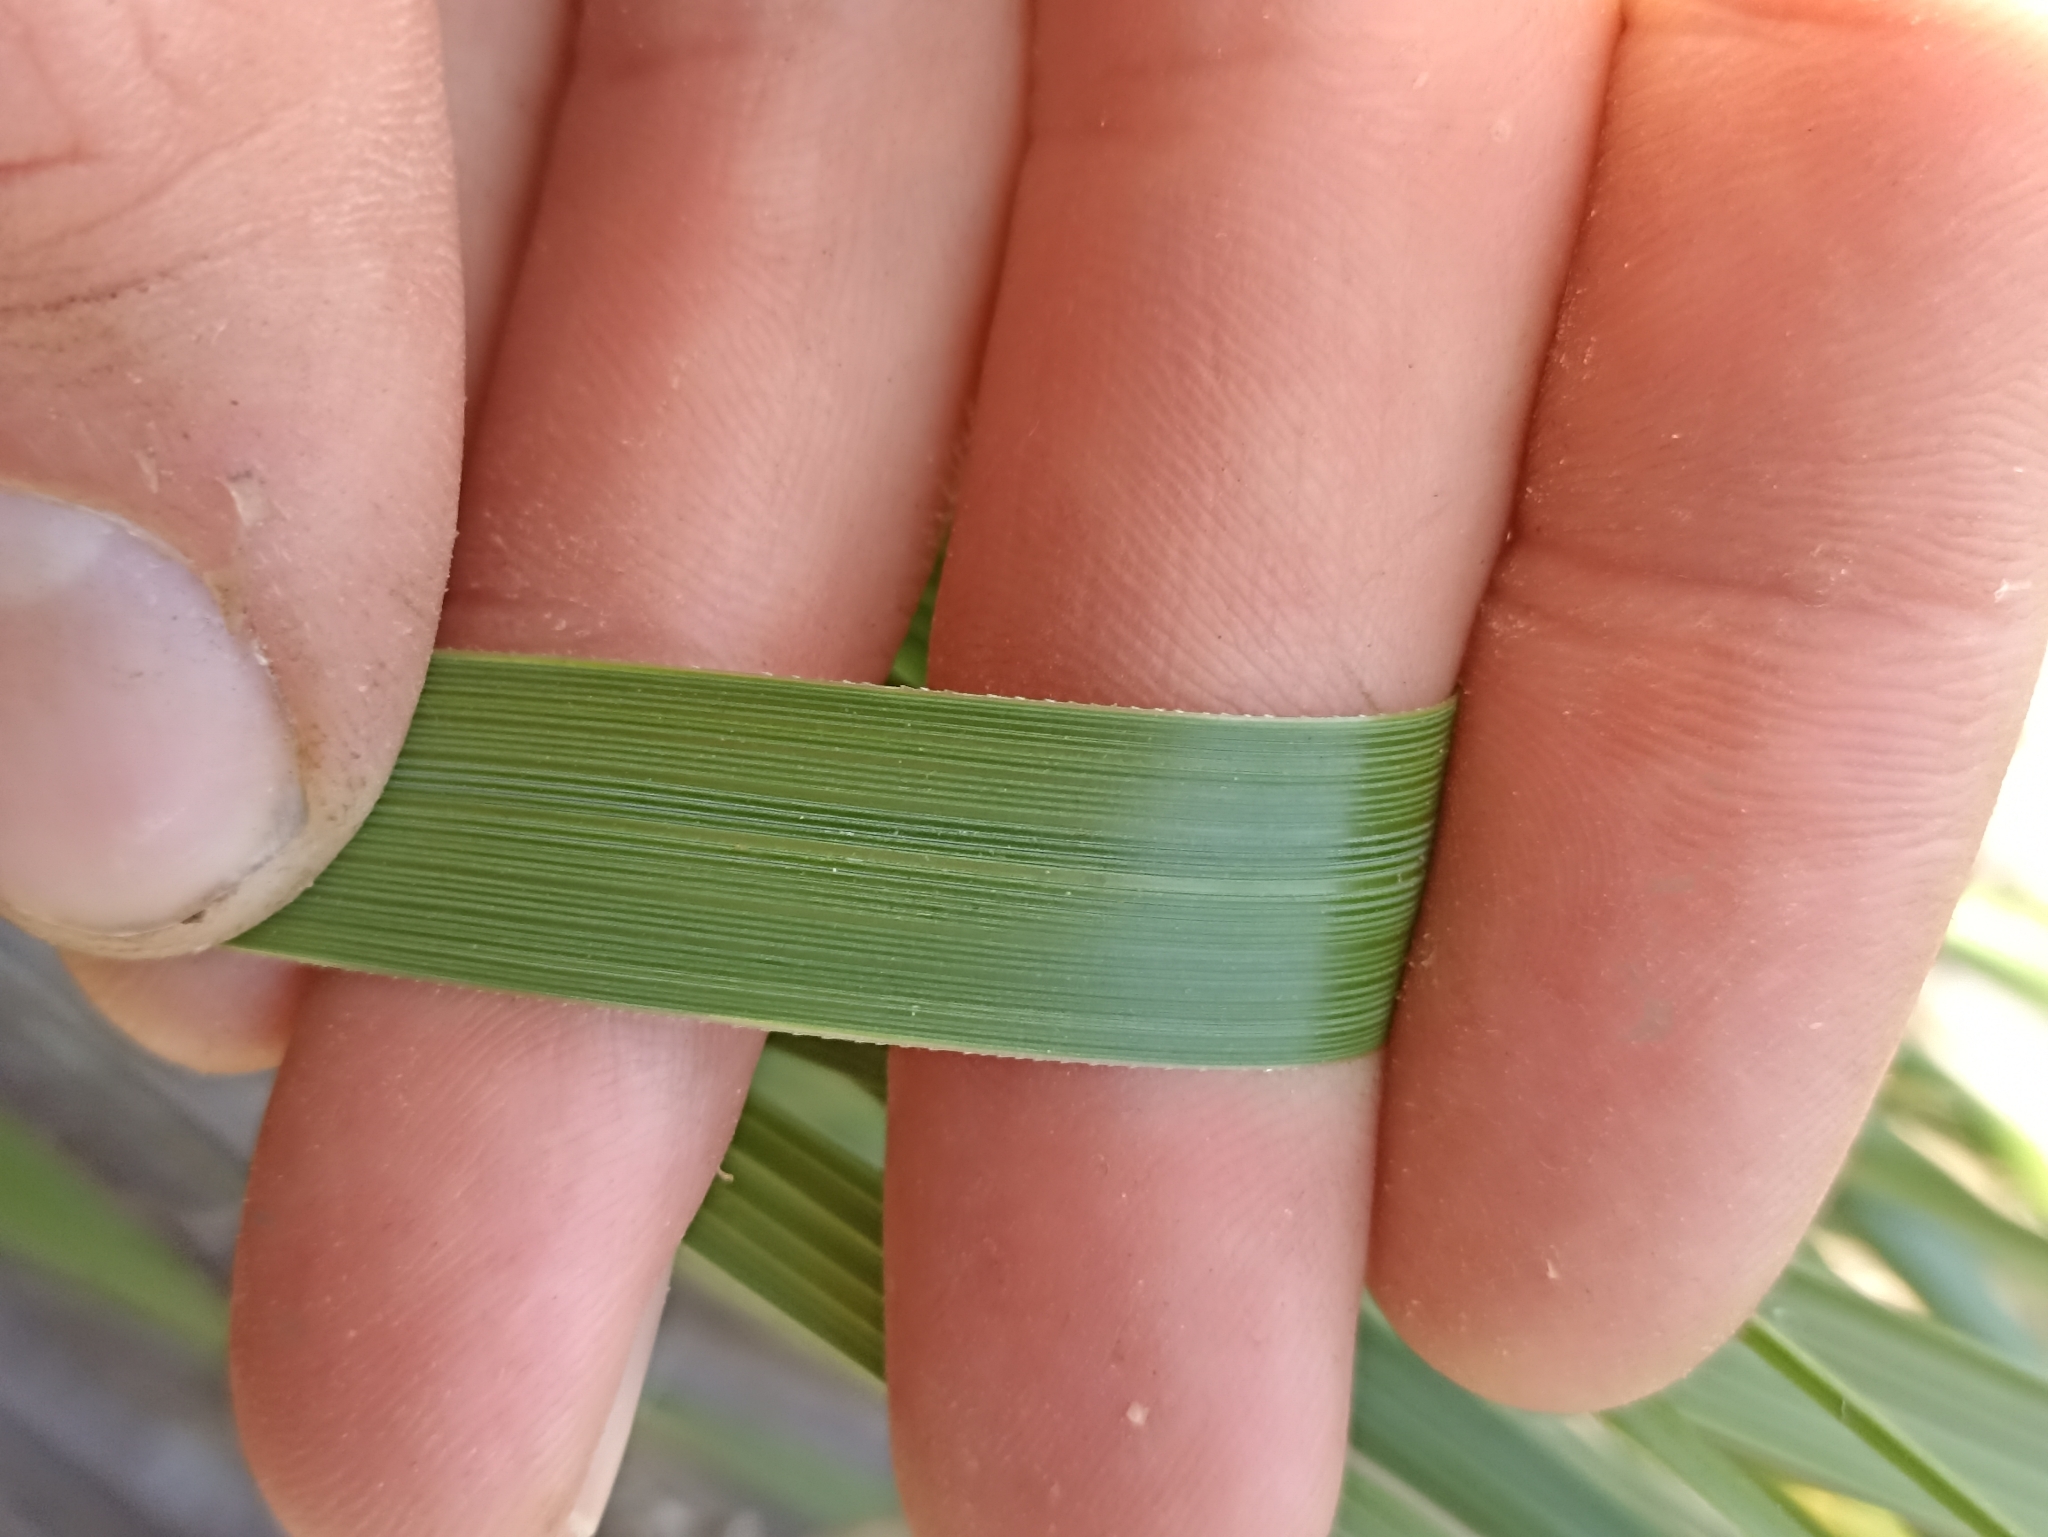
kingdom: Plantae
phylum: Tracheophyta
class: Liliopsida
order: Poales
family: Poaceae
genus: Chionochloa
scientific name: Chionochloa bromoides
